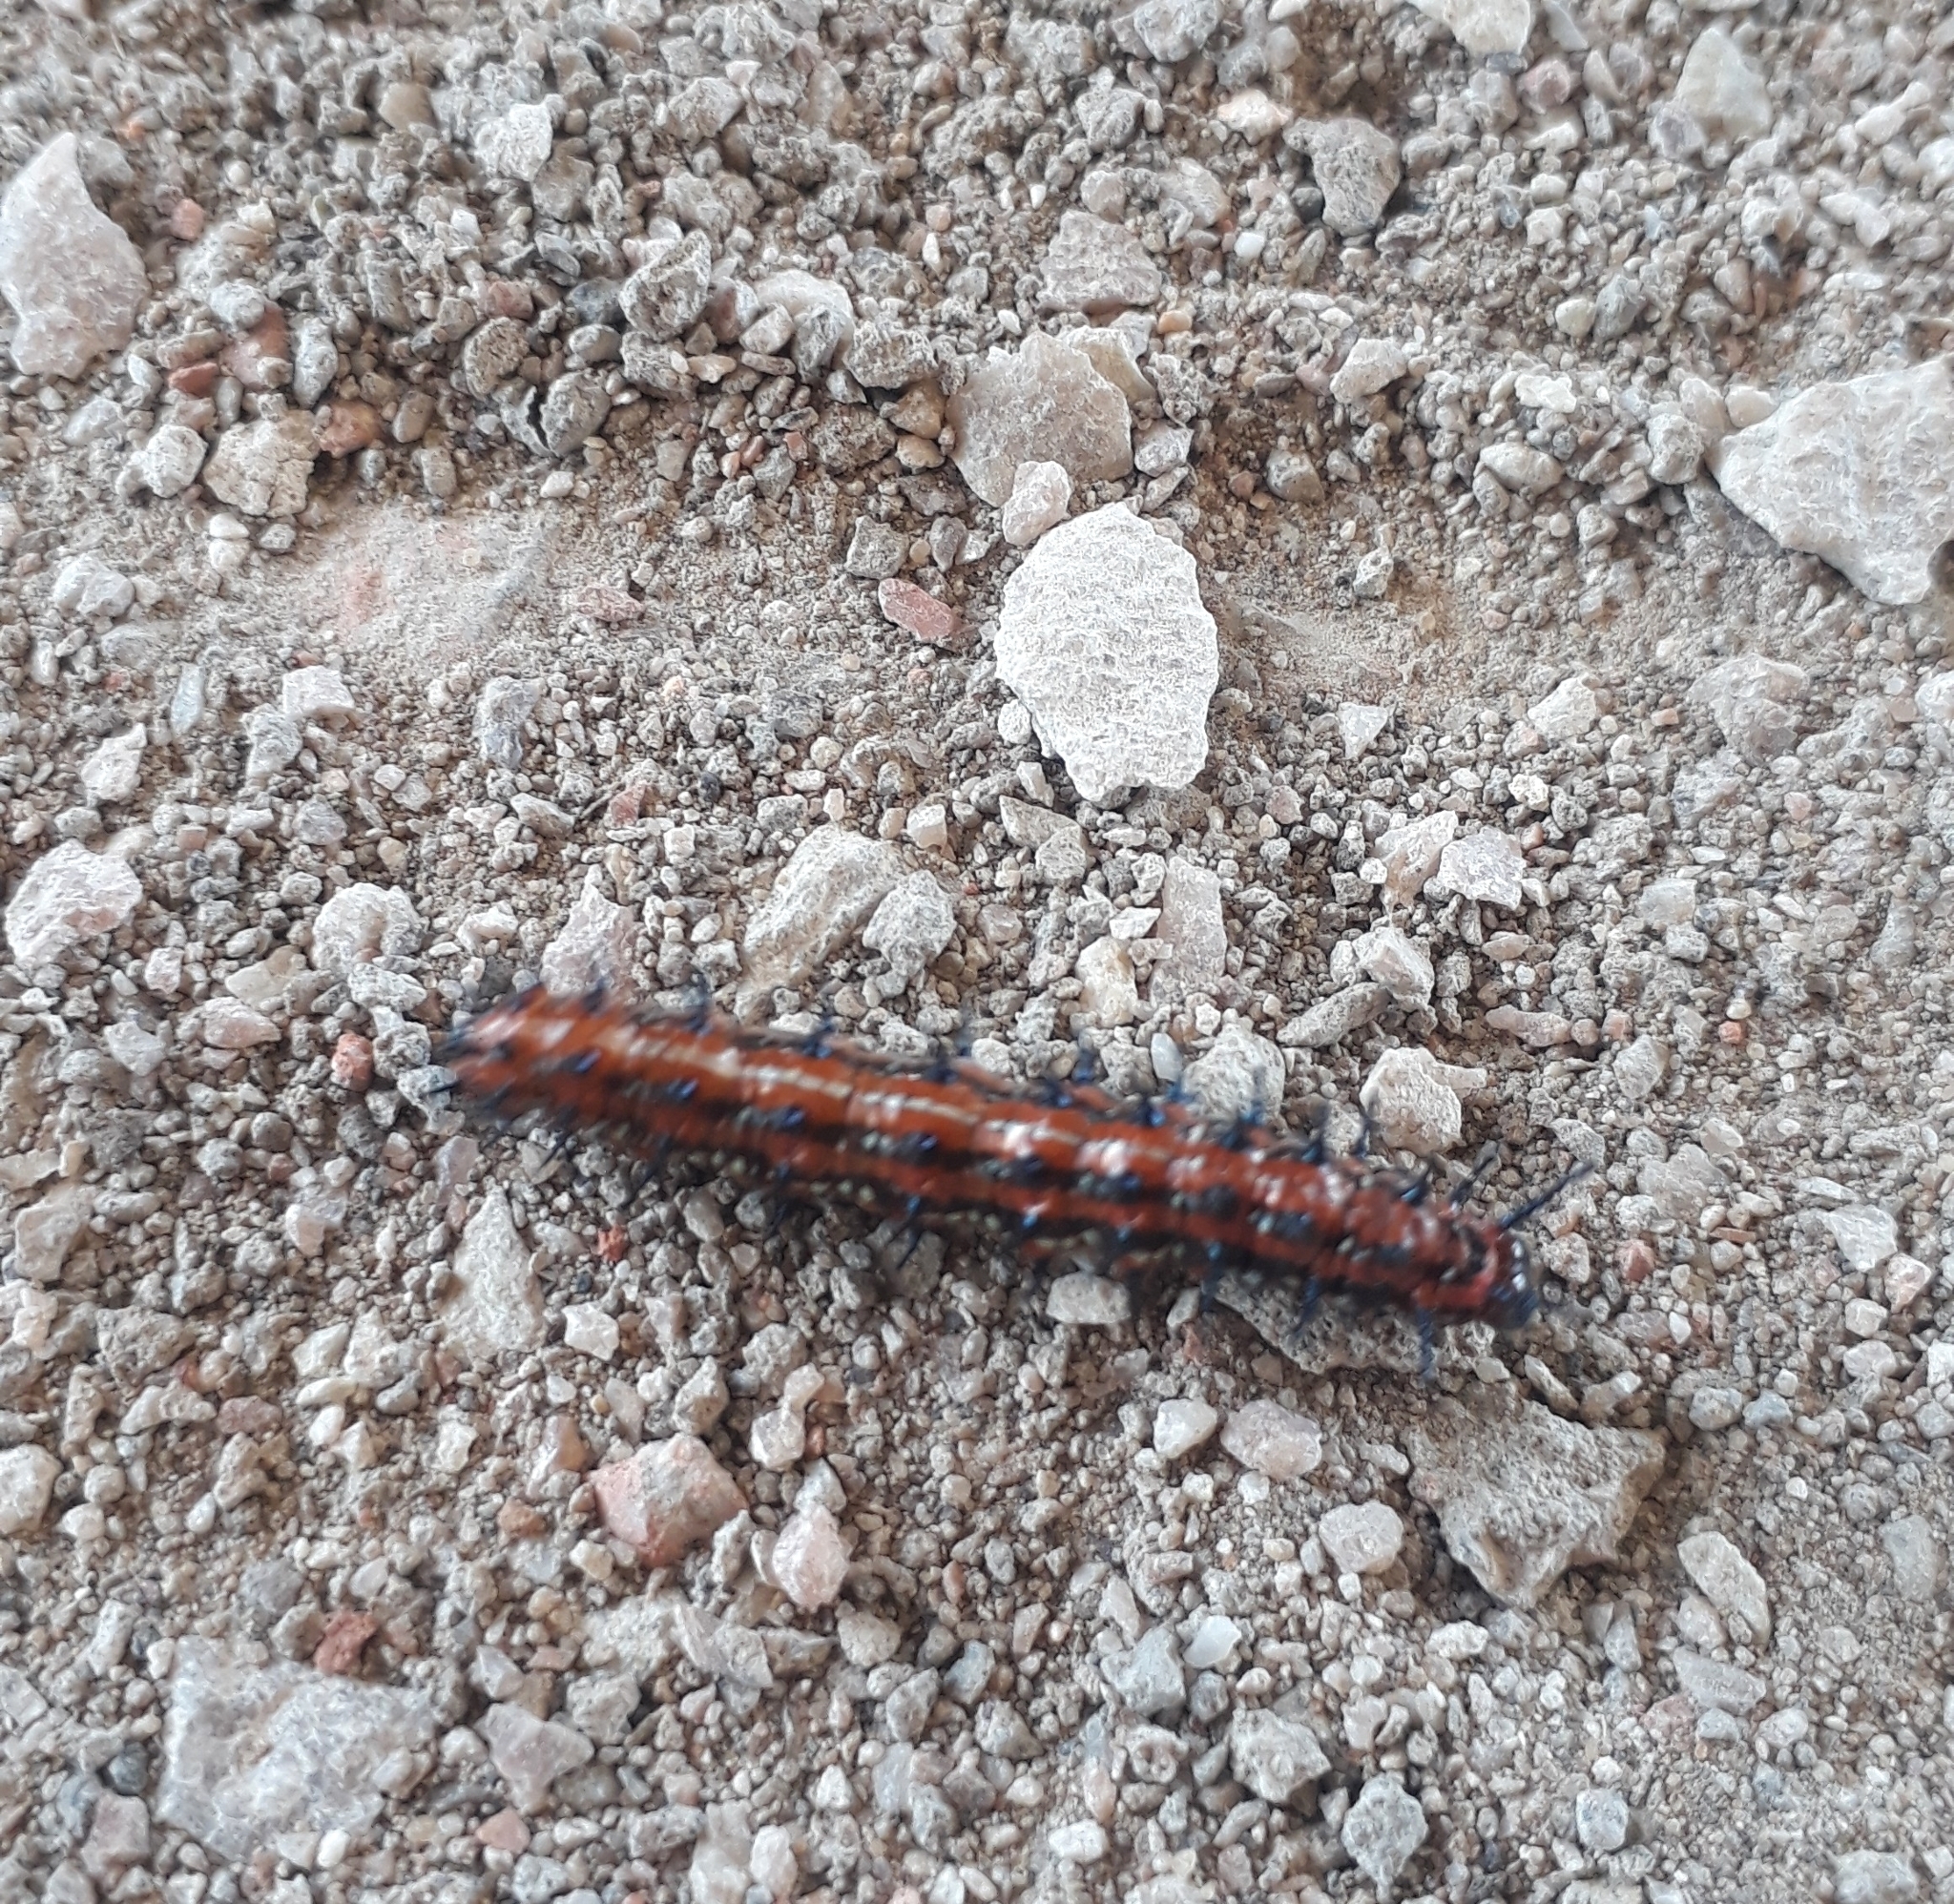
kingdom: Animalia
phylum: Arthropoda
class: Insecta
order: Lepidoptera
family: Nymphalidae
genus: Euptoieta
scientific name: Euptoieta hortensia
